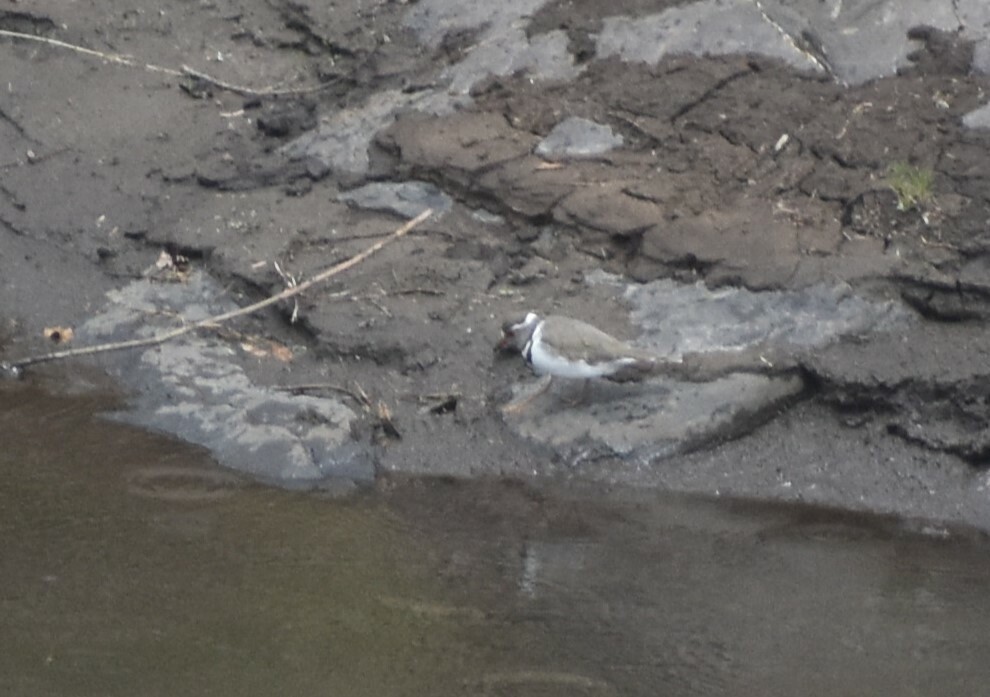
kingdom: Animalia
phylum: Chordata
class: Aves
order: Charadriiformes
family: Charadriidae
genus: Charadrius
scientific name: Charadrius tricollaris
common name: Three-banded plover
